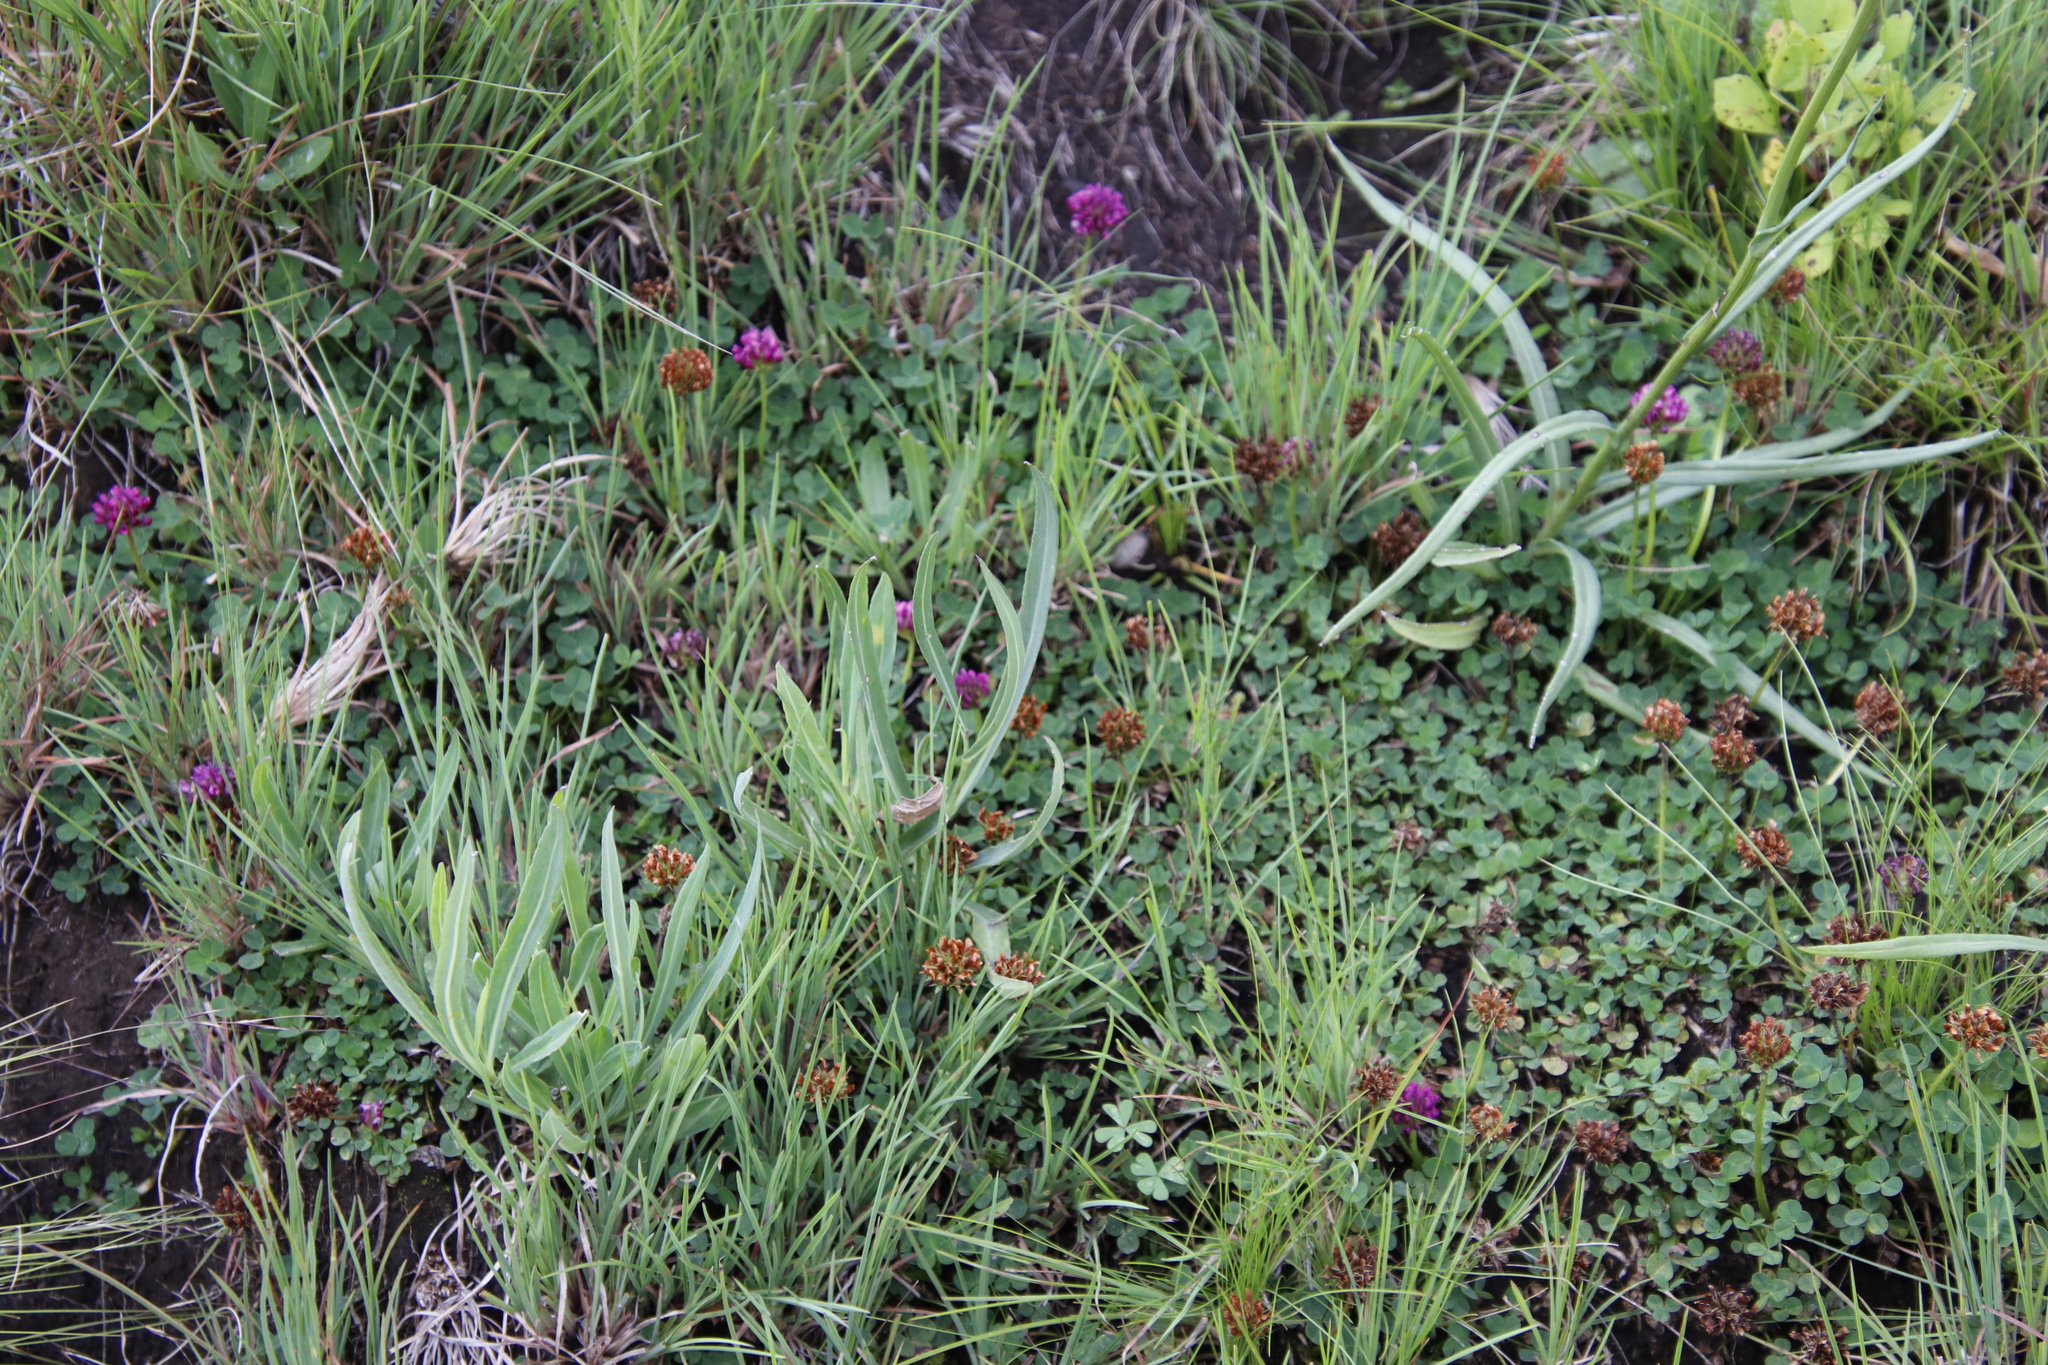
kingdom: Plantae
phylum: Tracheophyta
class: Magnoliopsida
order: Fabales
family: Fabaceae
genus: Trifolium
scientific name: Trifolium burchellianum
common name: Burchell's clover
